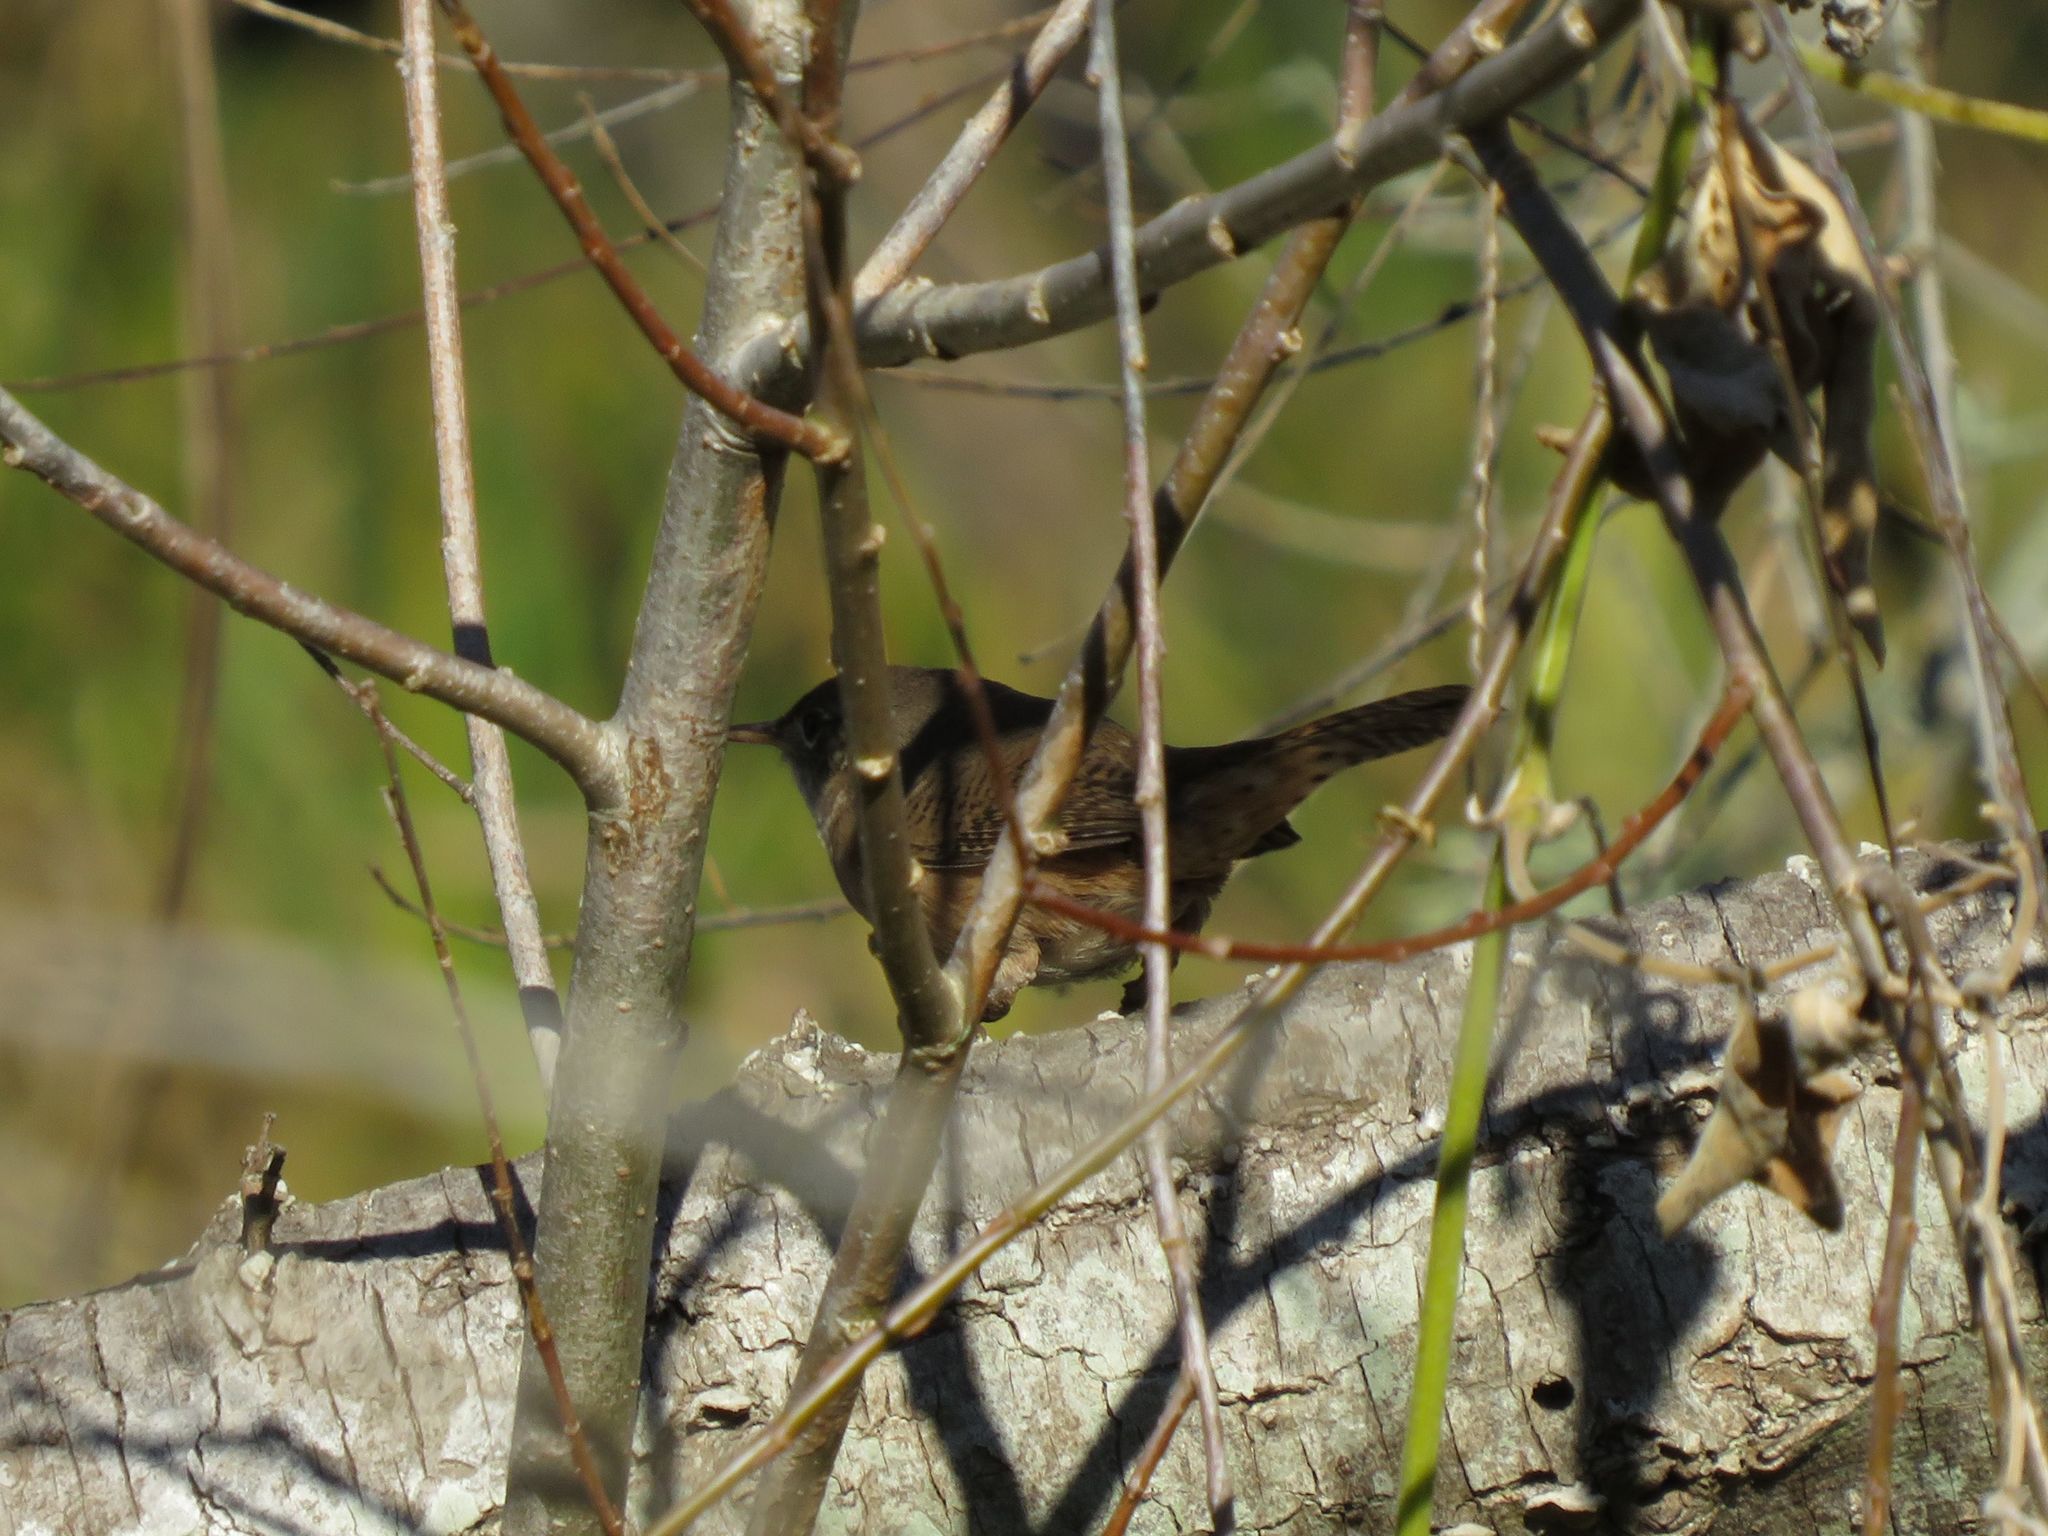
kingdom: Animalia
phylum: Chordata
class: Aves
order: Passeriformes
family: Troglodytidae
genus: Troglodytes
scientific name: Troglodytes aedon
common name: House wren
